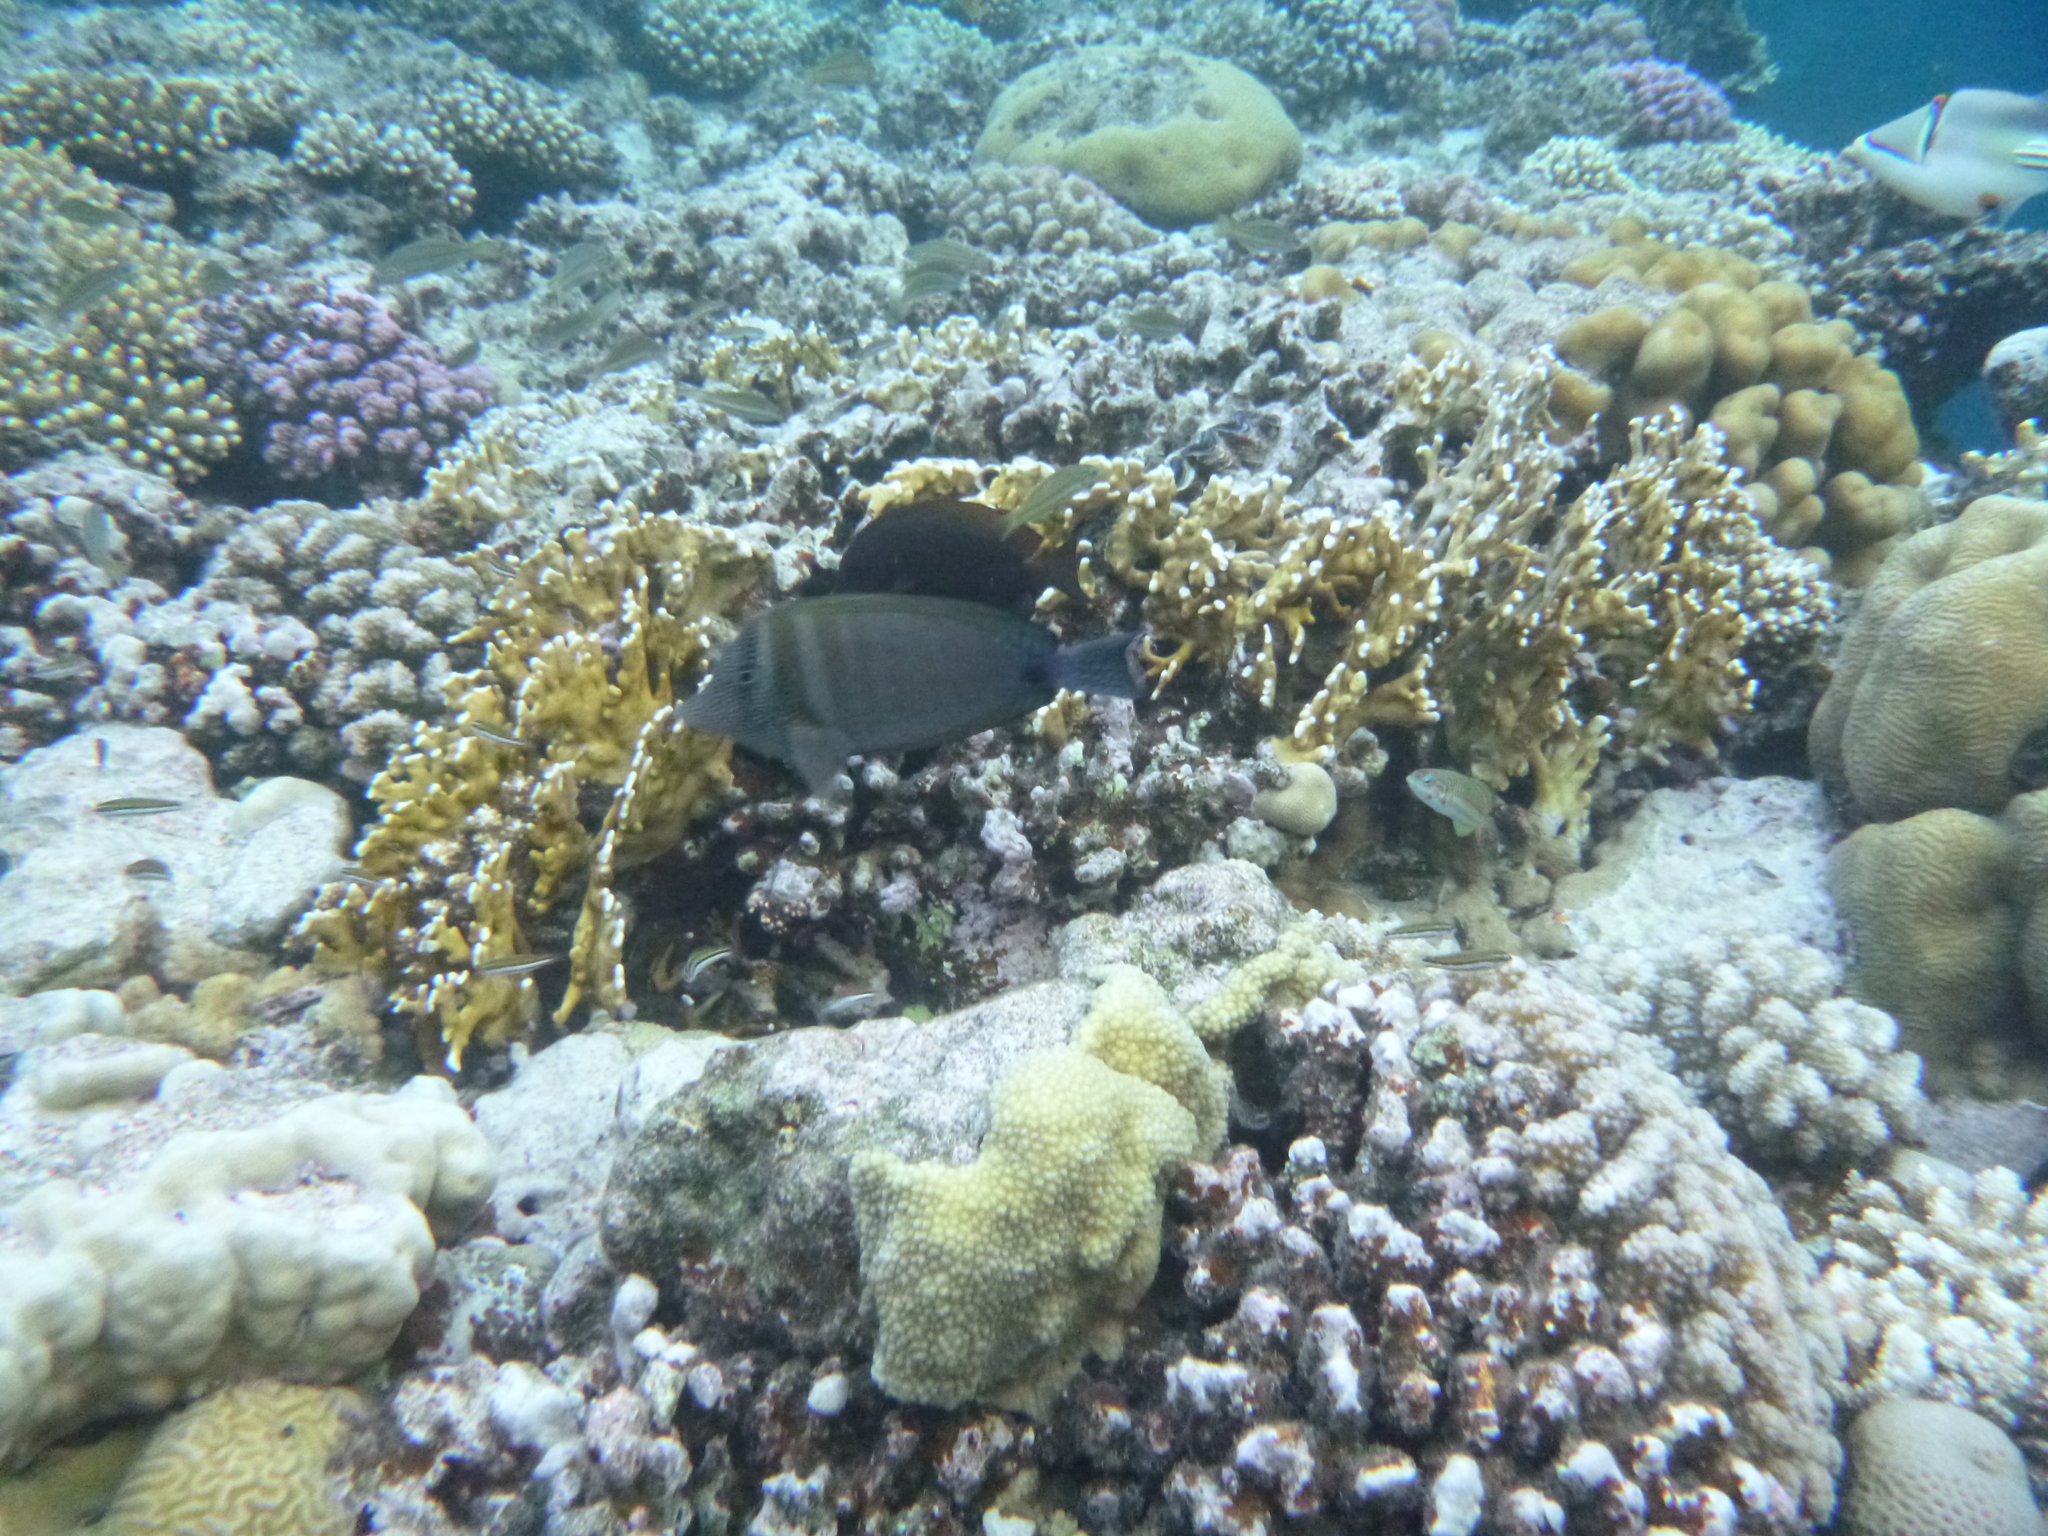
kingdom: Animalia
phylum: Chordata
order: Perciformes
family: Acanthuridae
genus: Zebrasoma
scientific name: Zebrasoma desjardinii
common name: Desjardin's sailfin tang
